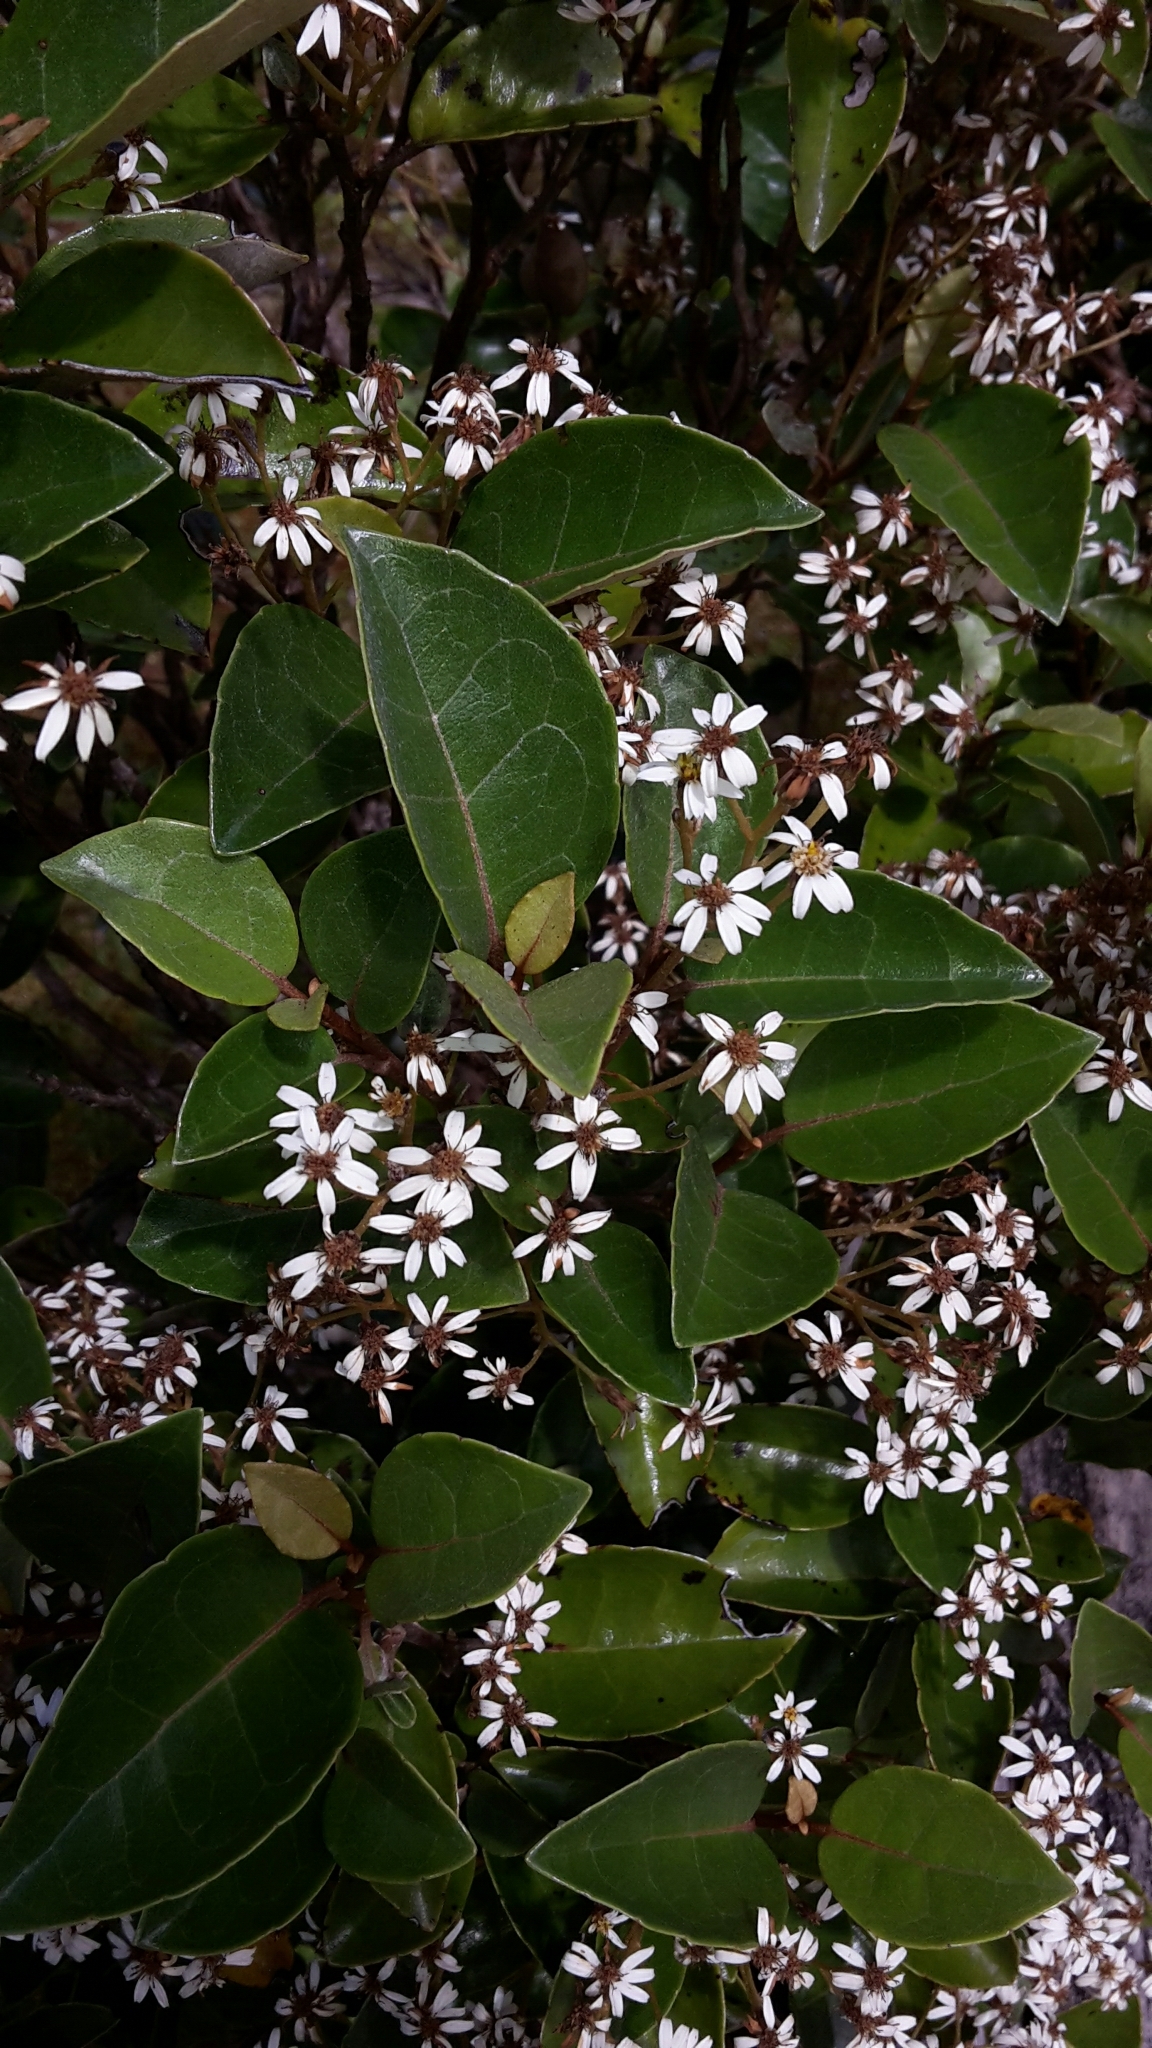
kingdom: Plantae
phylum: Tracheophyta
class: Magnoliopsida
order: Asterales
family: Asteraceae
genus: Olearia
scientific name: Olearia arborescens
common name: Glossy tree daisy
